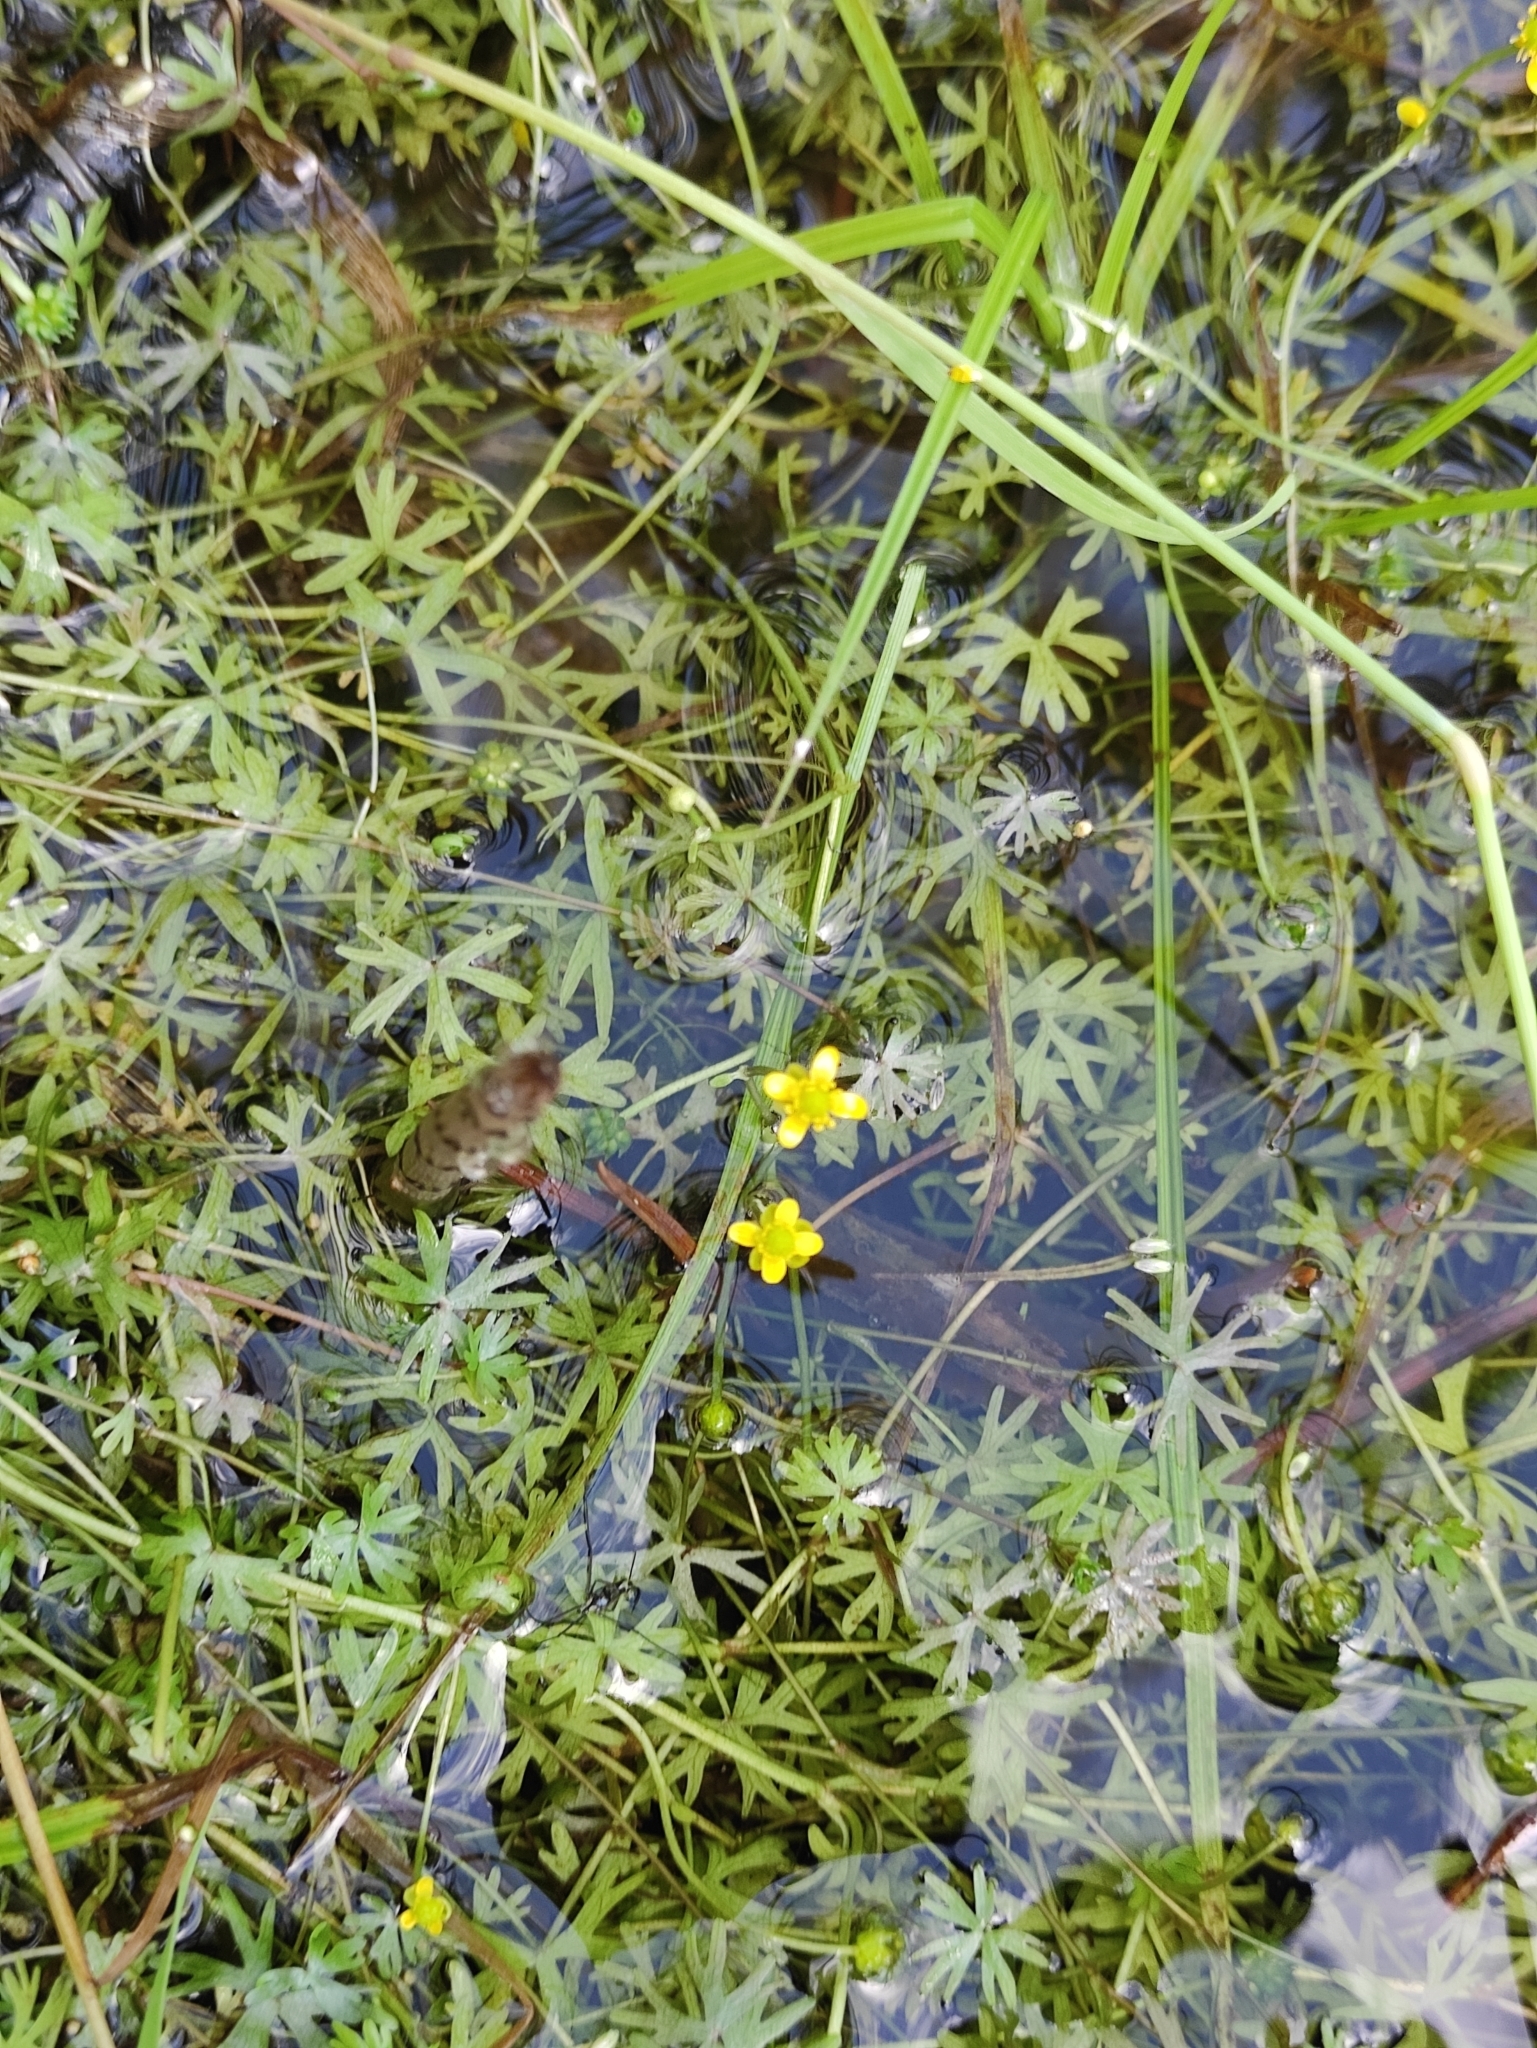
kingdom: Plantae
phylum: Tracheophyta
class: Magnoliopsida
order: Ranunculales
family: Ranunculaceae
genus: Ranunculus
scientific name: Ranunculus gmelinii
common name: Gmelin's buttercup
